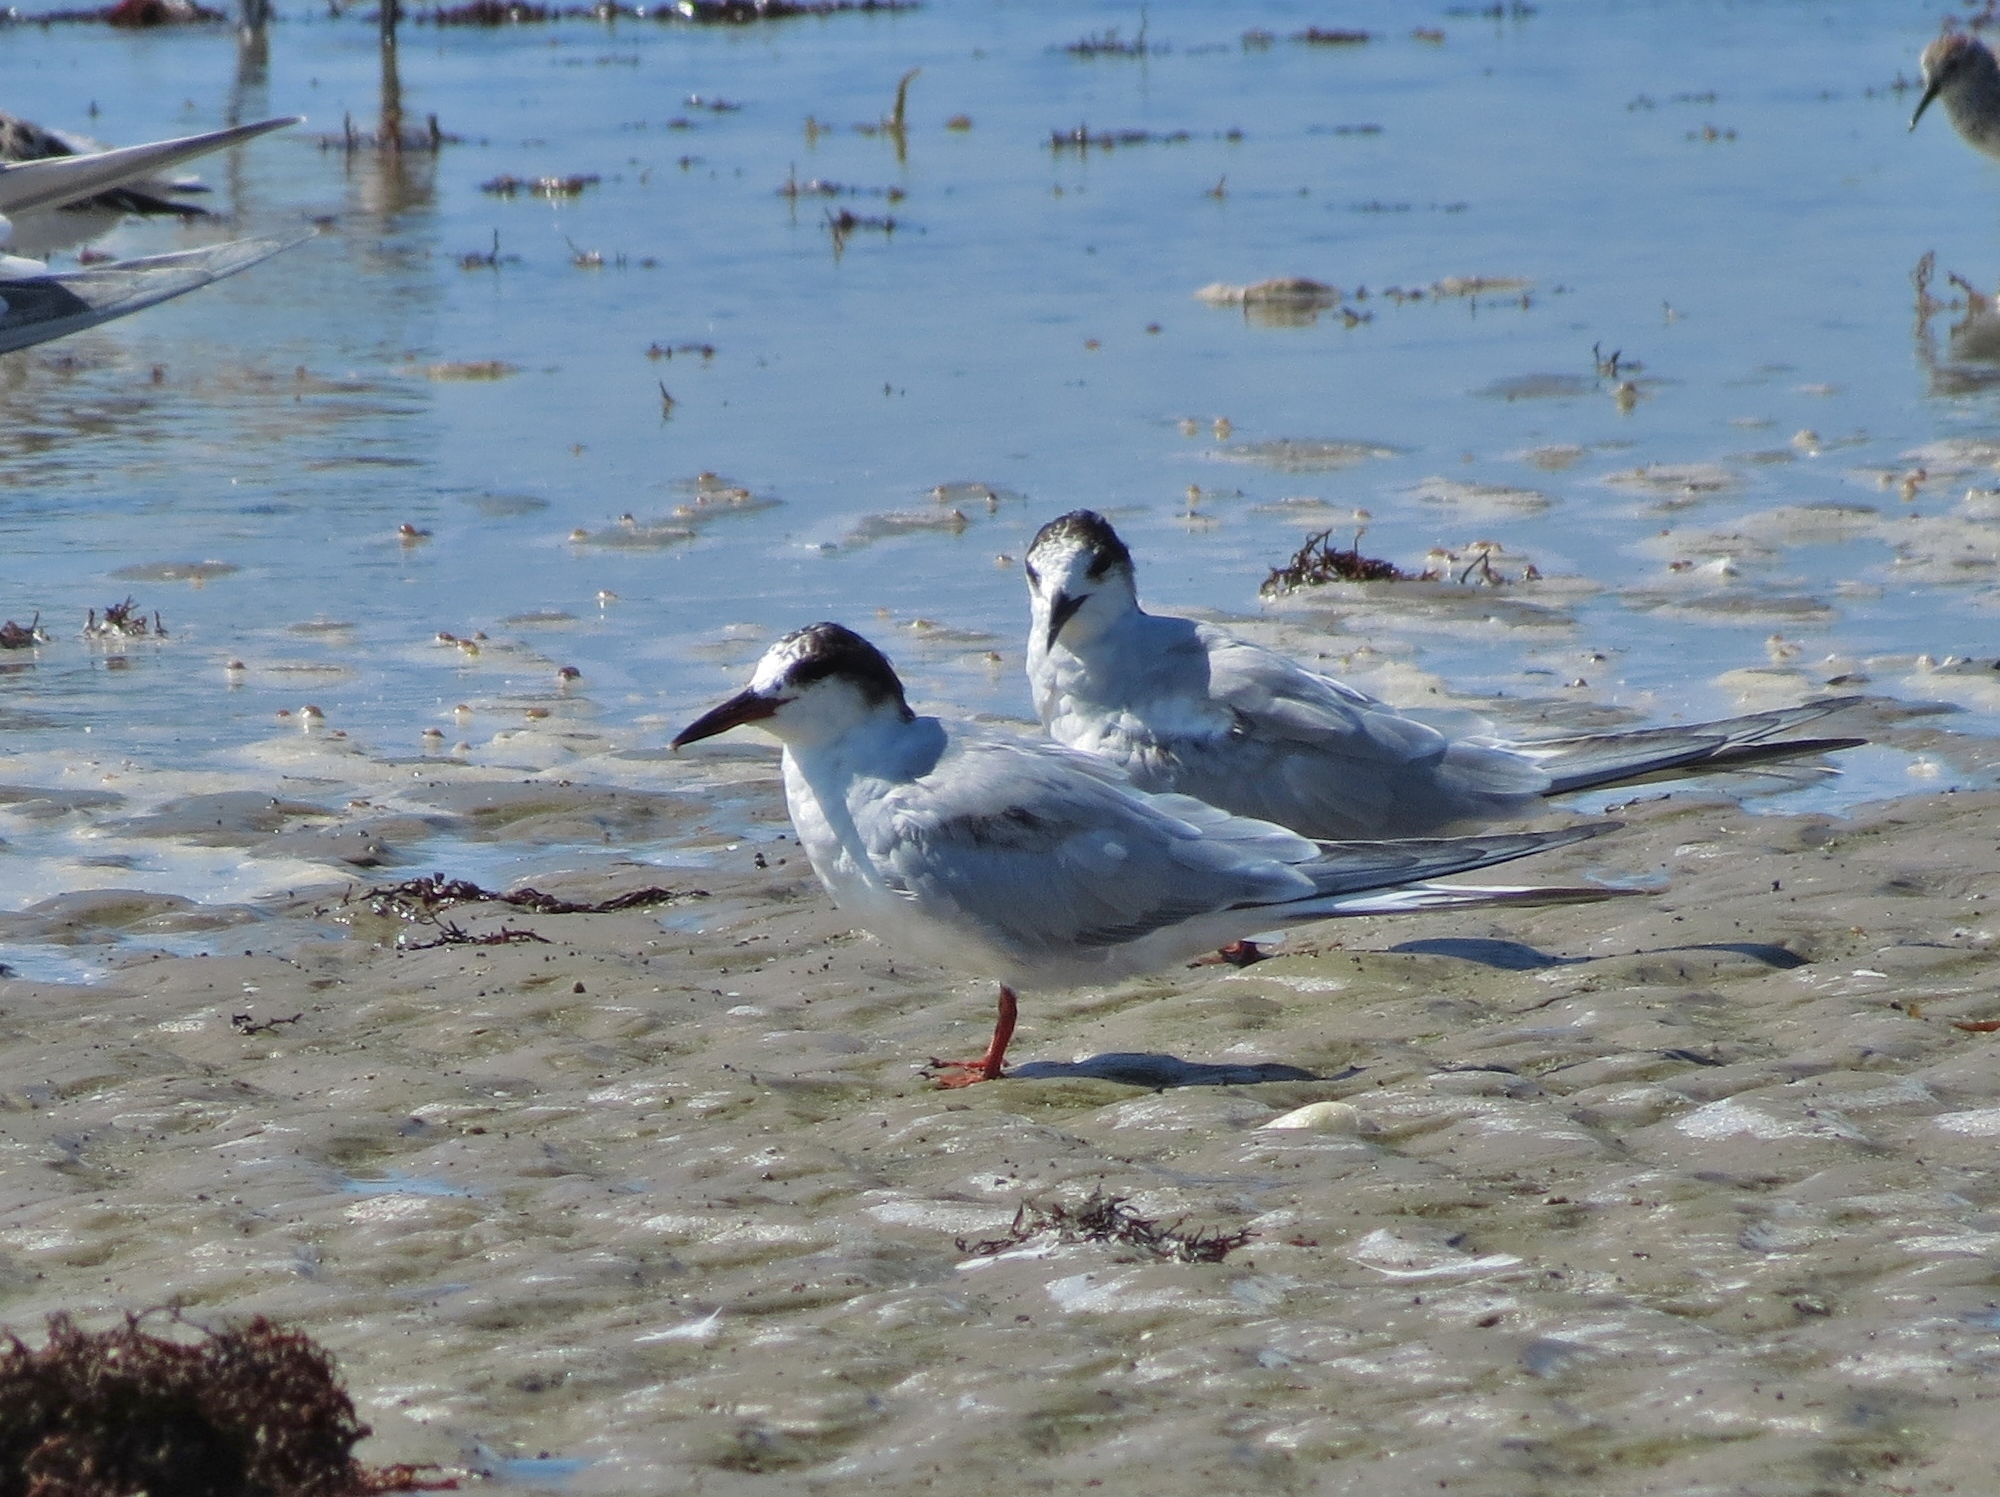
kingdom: Animalia
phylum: Chordata
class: Aves
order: Charadriiformes
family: Laridae
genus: Sterna
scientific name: Sterna hirundo
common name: Common tern
